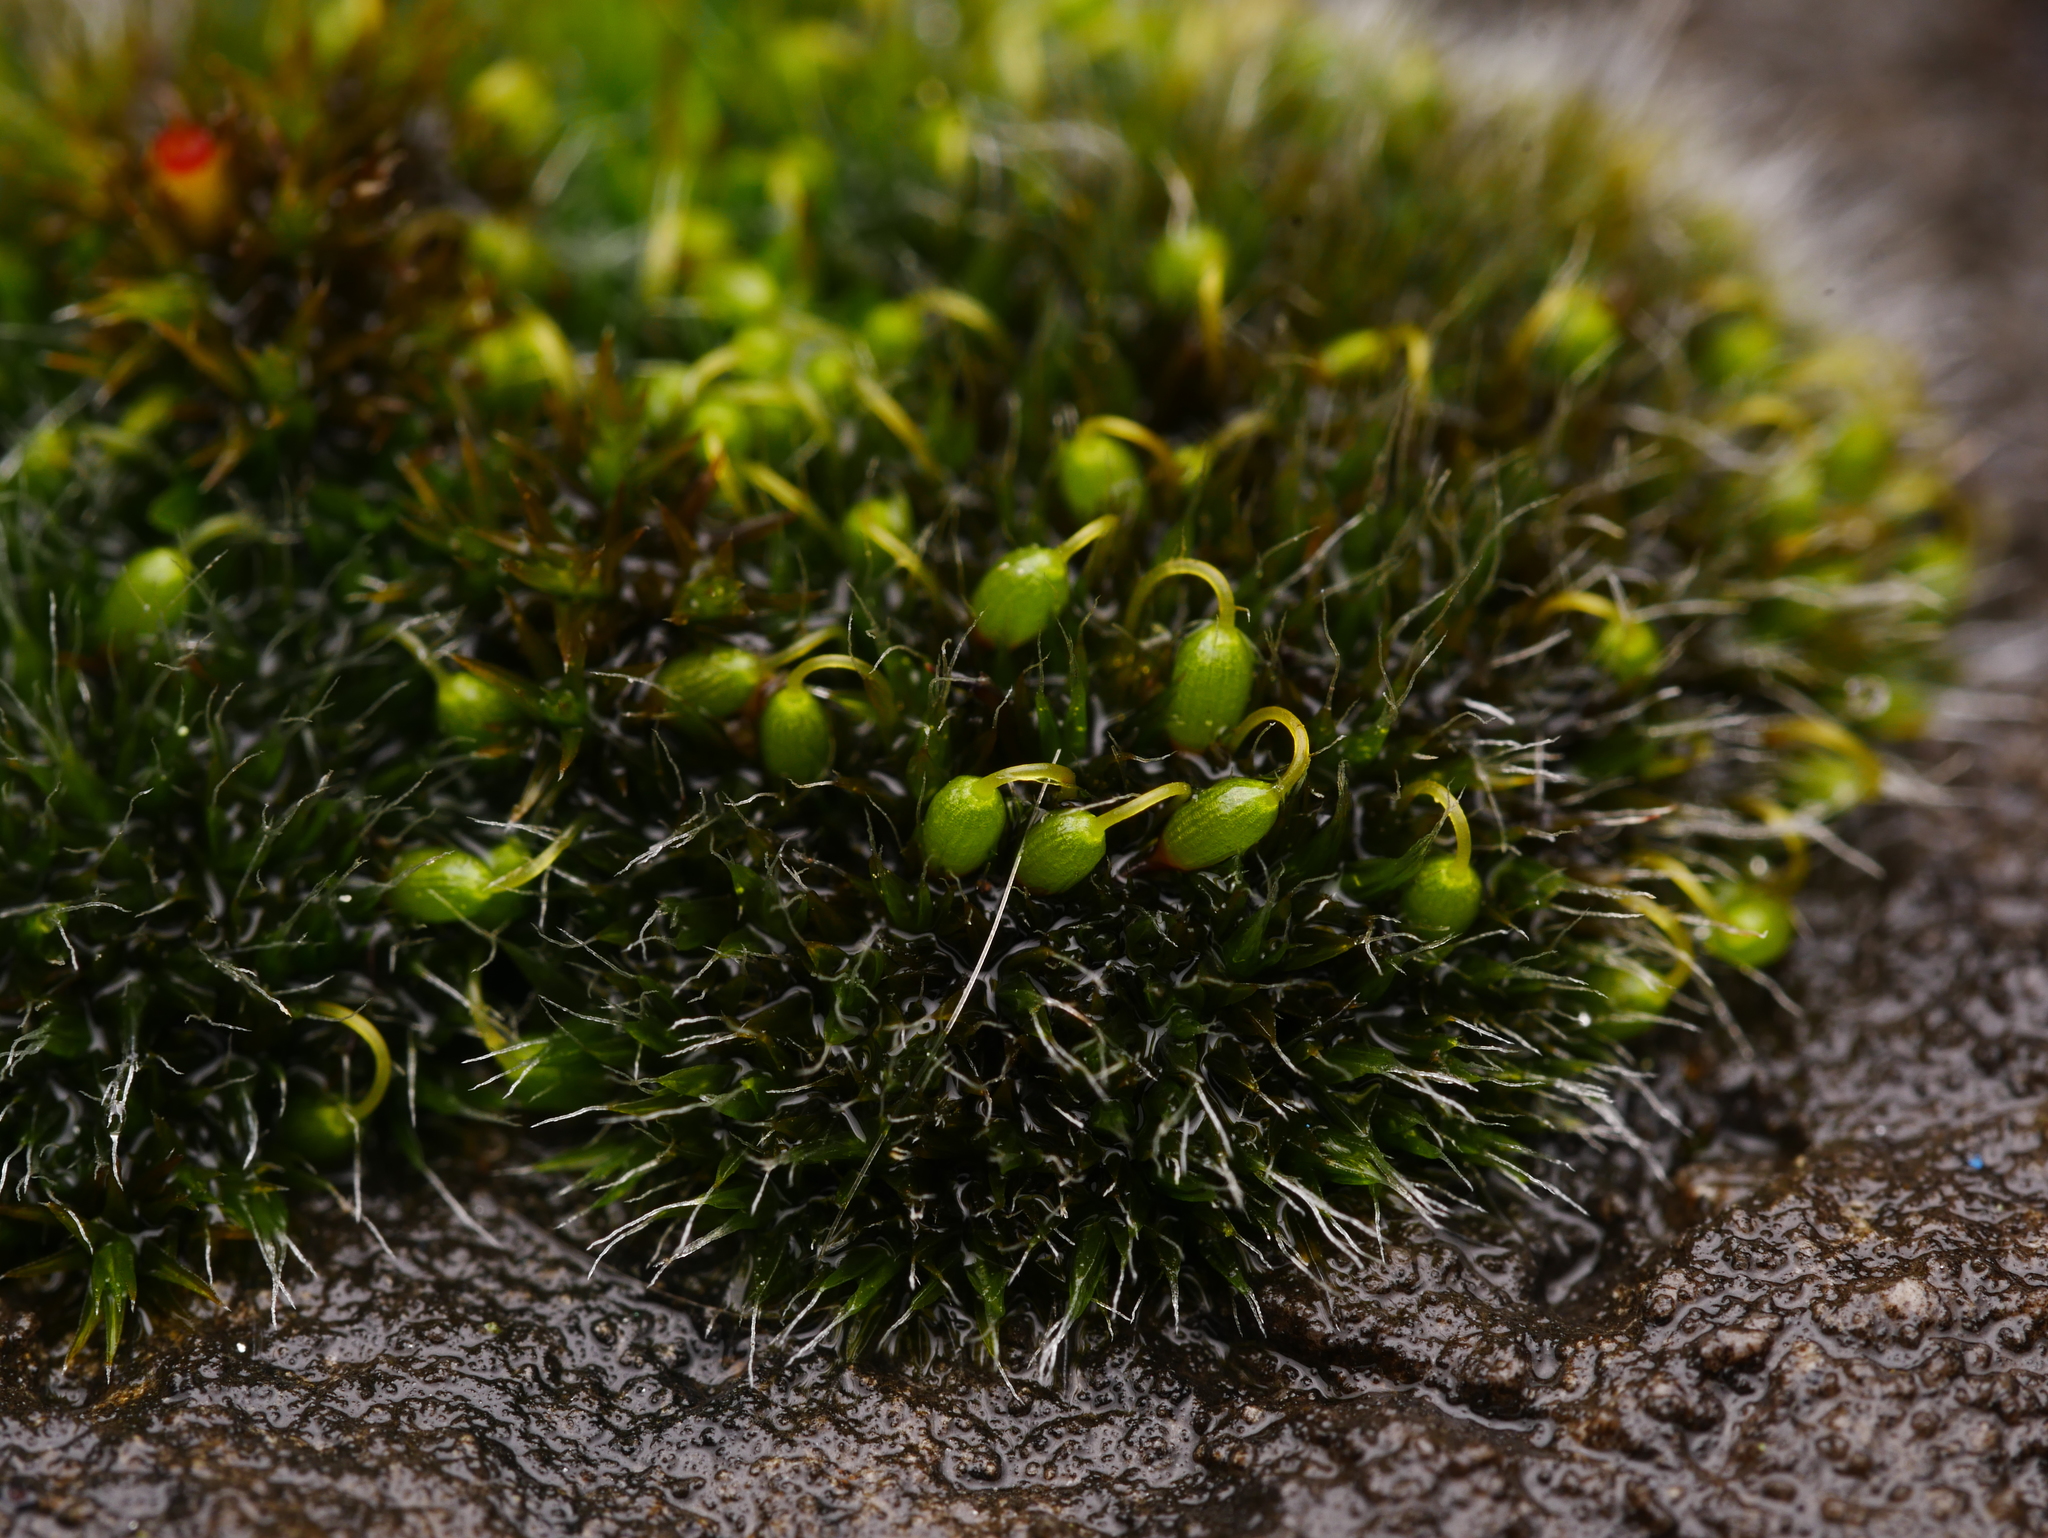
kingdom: Plantae
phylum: Bryophyta
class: Bryopsida
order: Grimmiales
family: Grimmiaceae
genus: Grimmia
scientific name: Grimmia pulvinata
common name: Grey-cushioned grimmia
